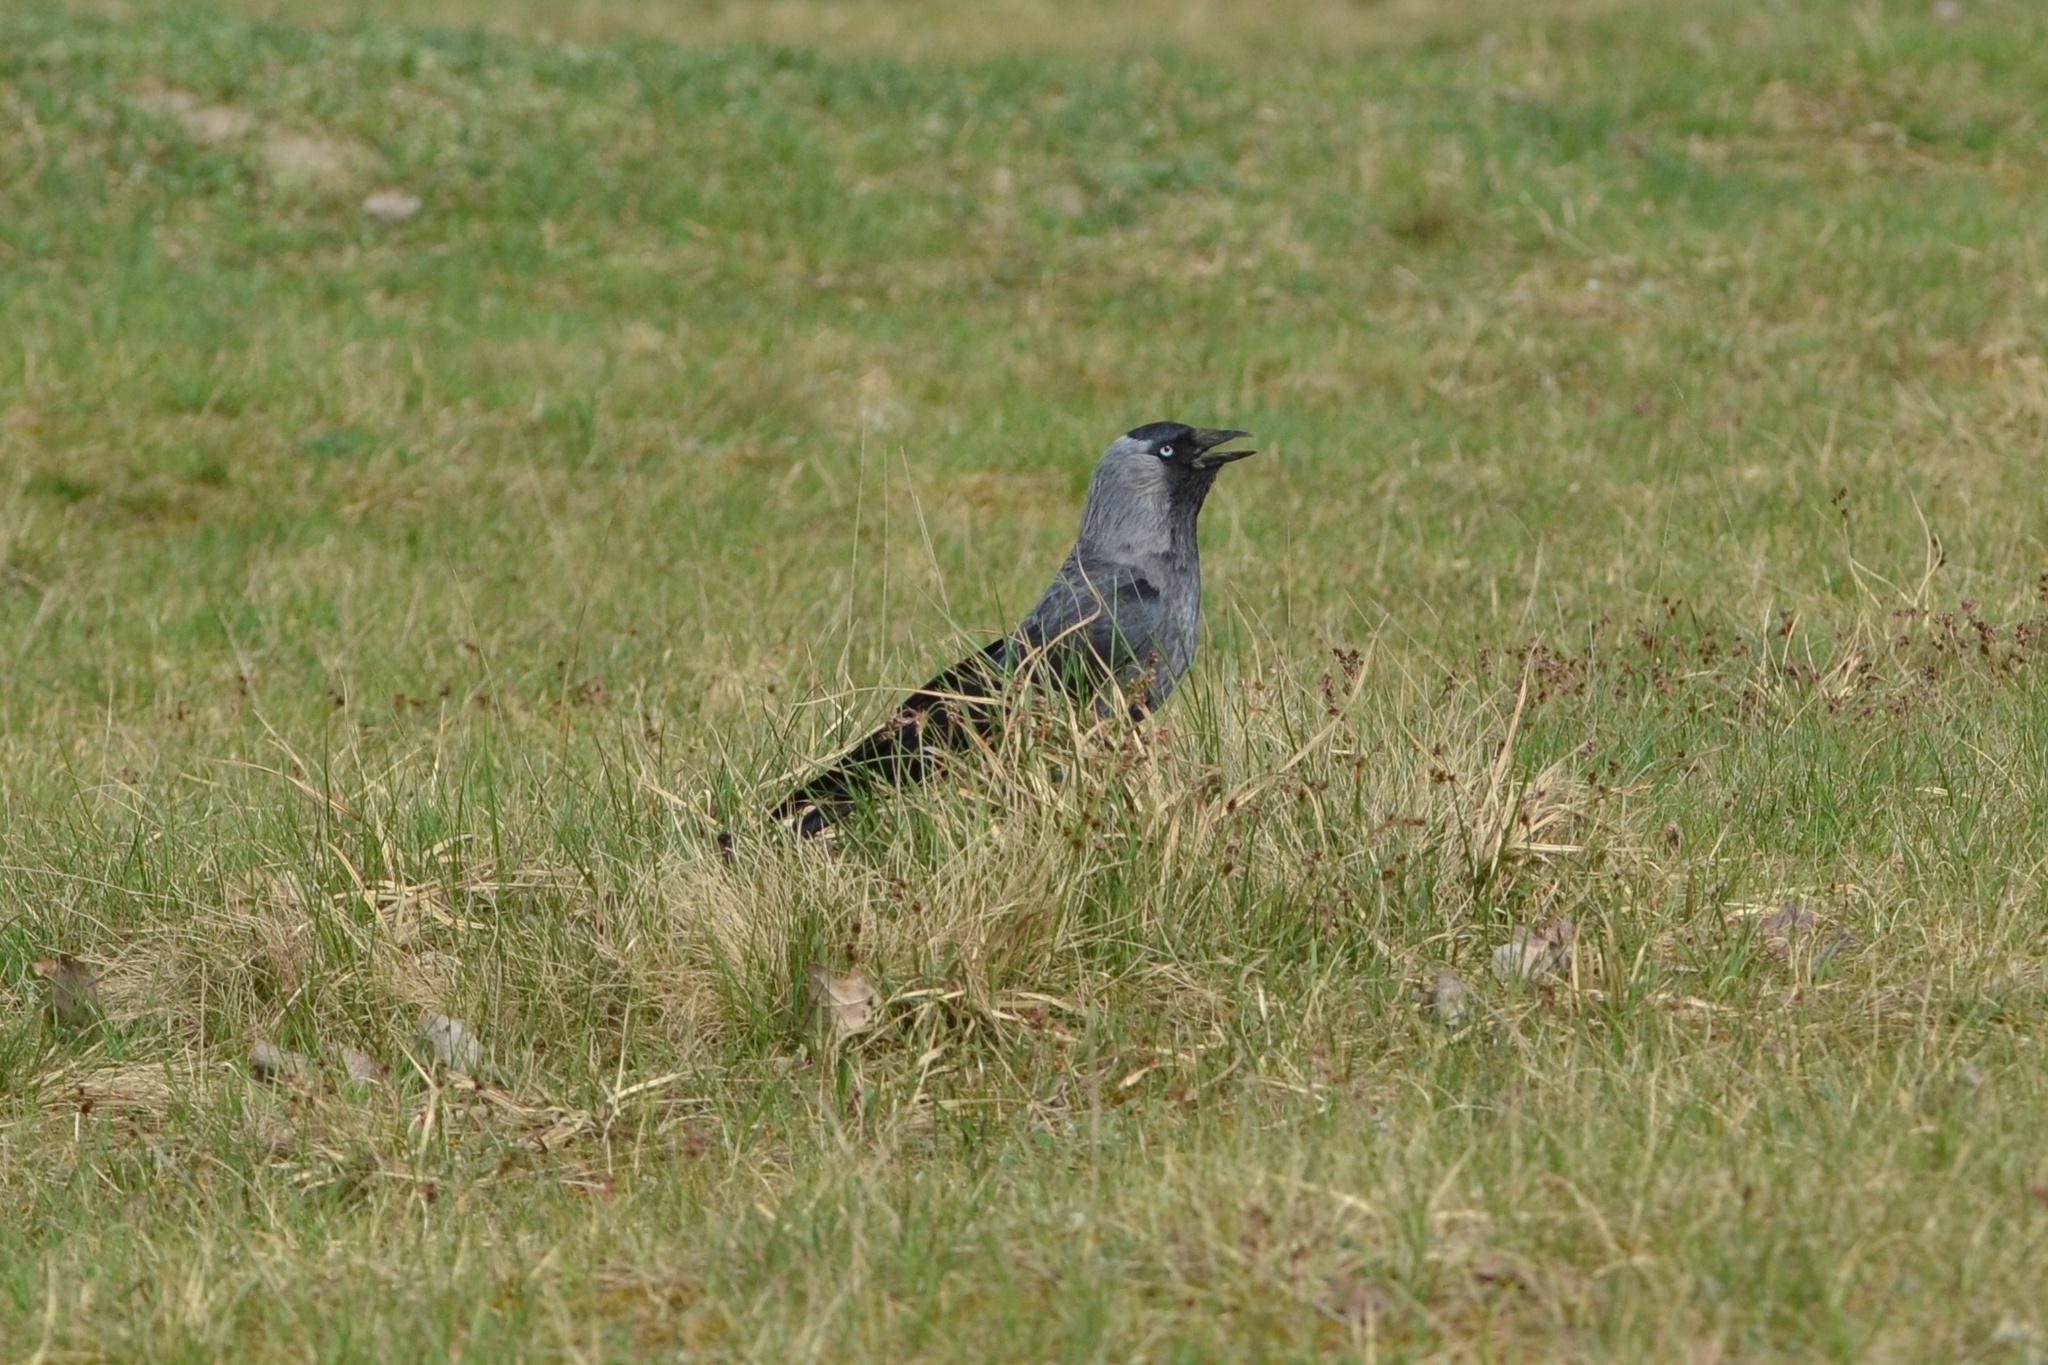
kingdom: Animalia
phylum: Chordata
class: Aves
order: Passeriformes
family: Corvidae
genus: Coloeus
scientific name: Coloeus monedula
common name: Western jackdaw
